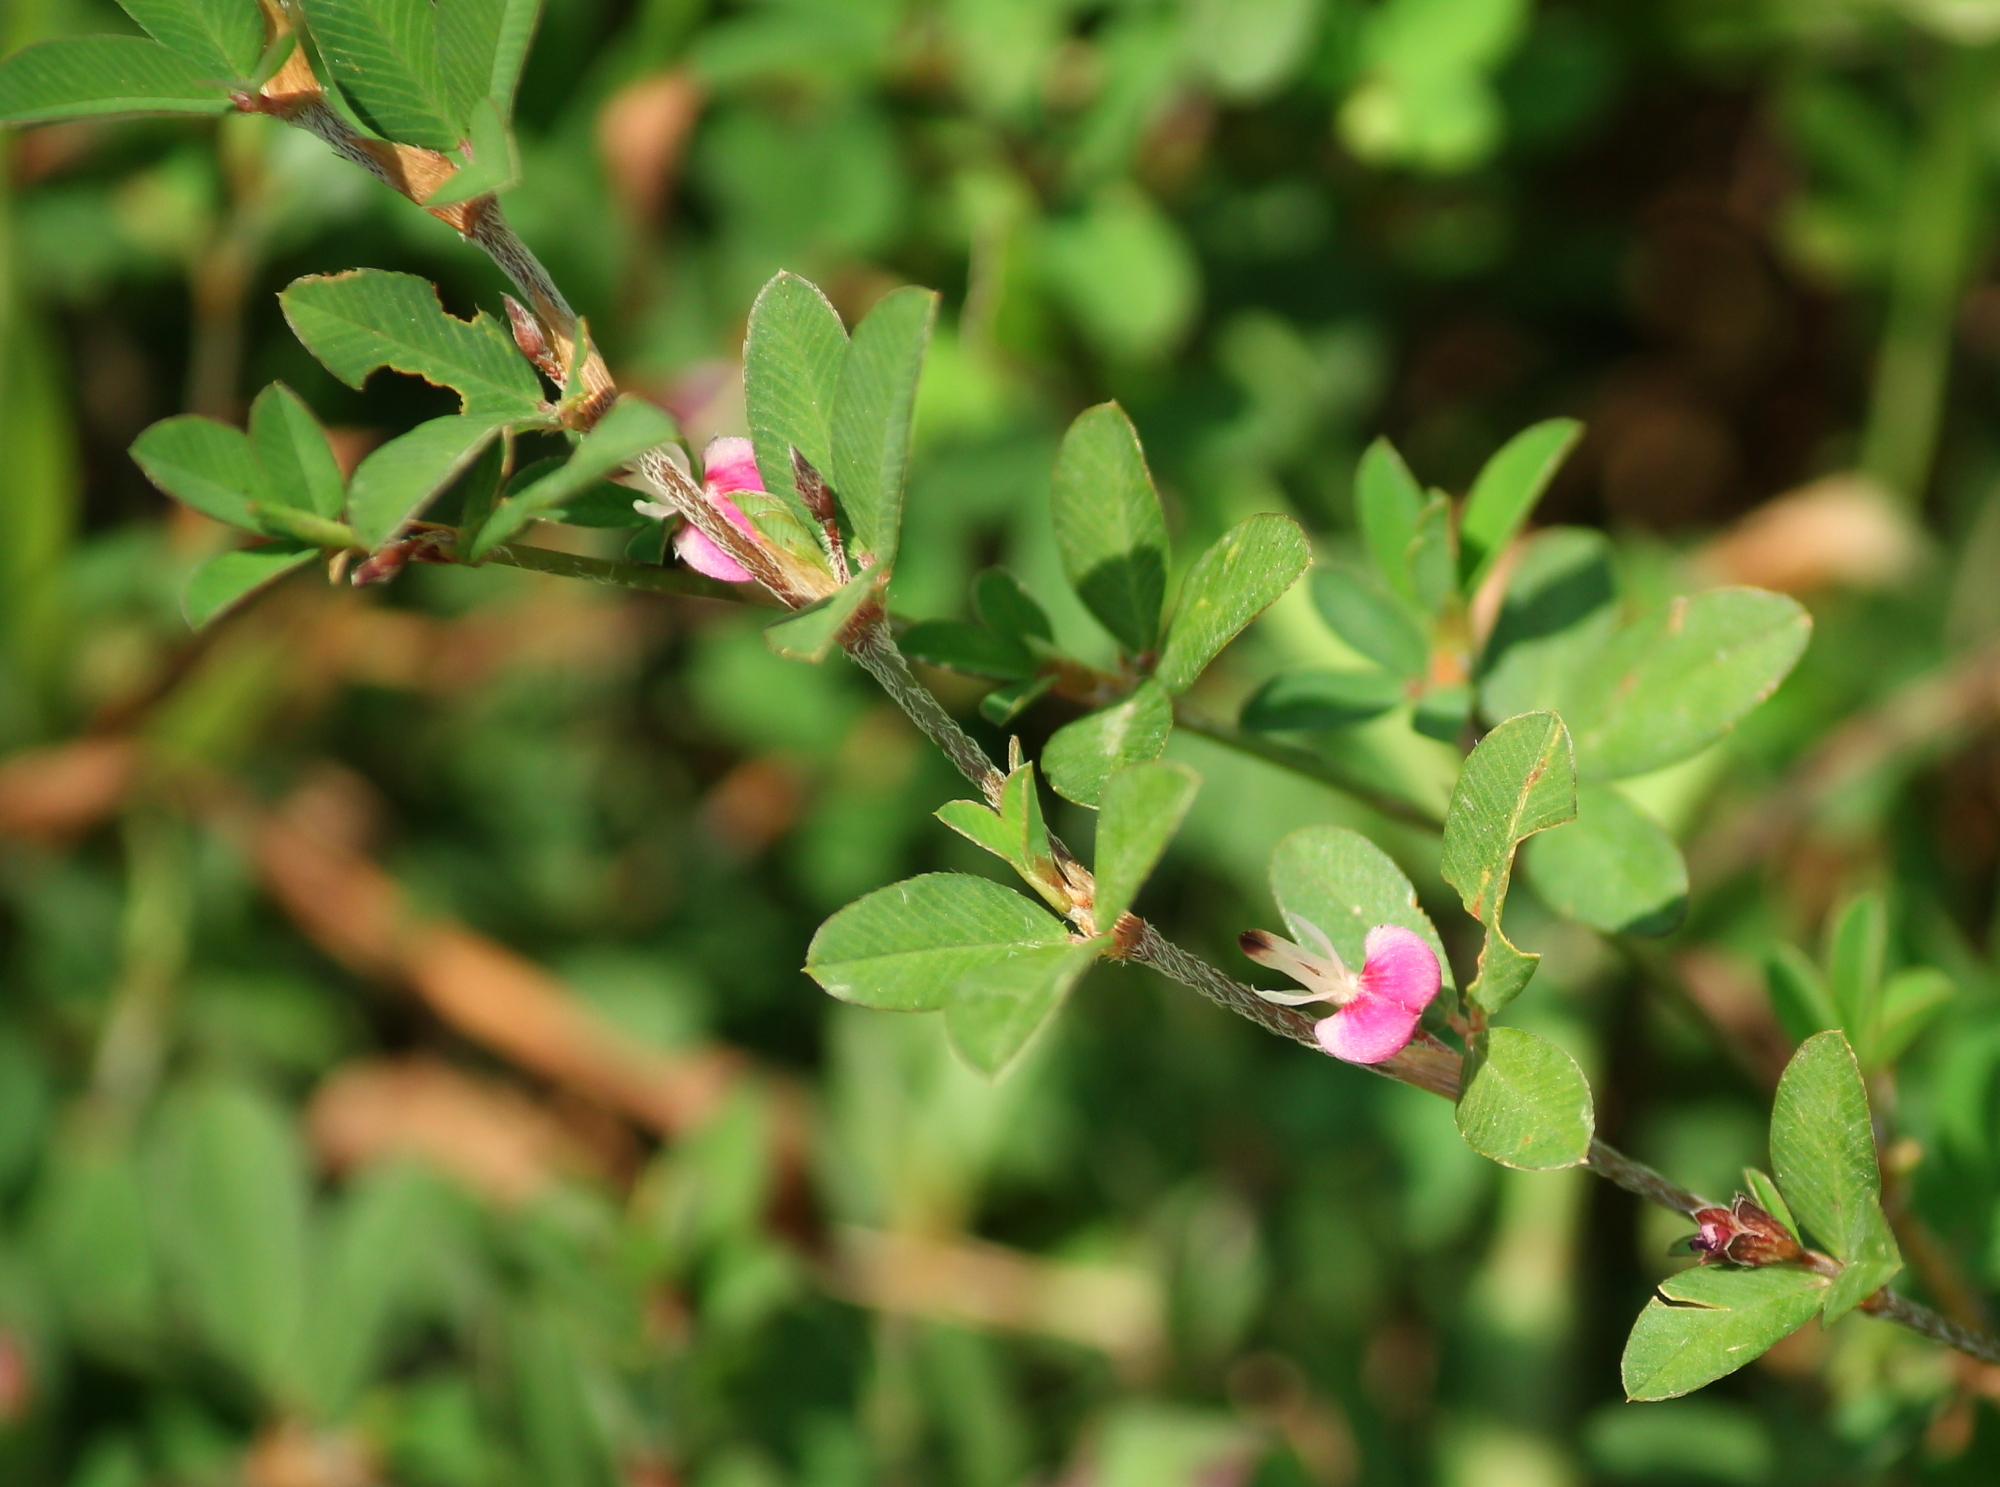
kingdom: Plantae
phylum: Tracheophyta
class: Magnoliopsida
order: Fabales
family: Fabaceae
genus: Kummerowia
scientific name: Kummerowia striata
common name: Japanese clover
